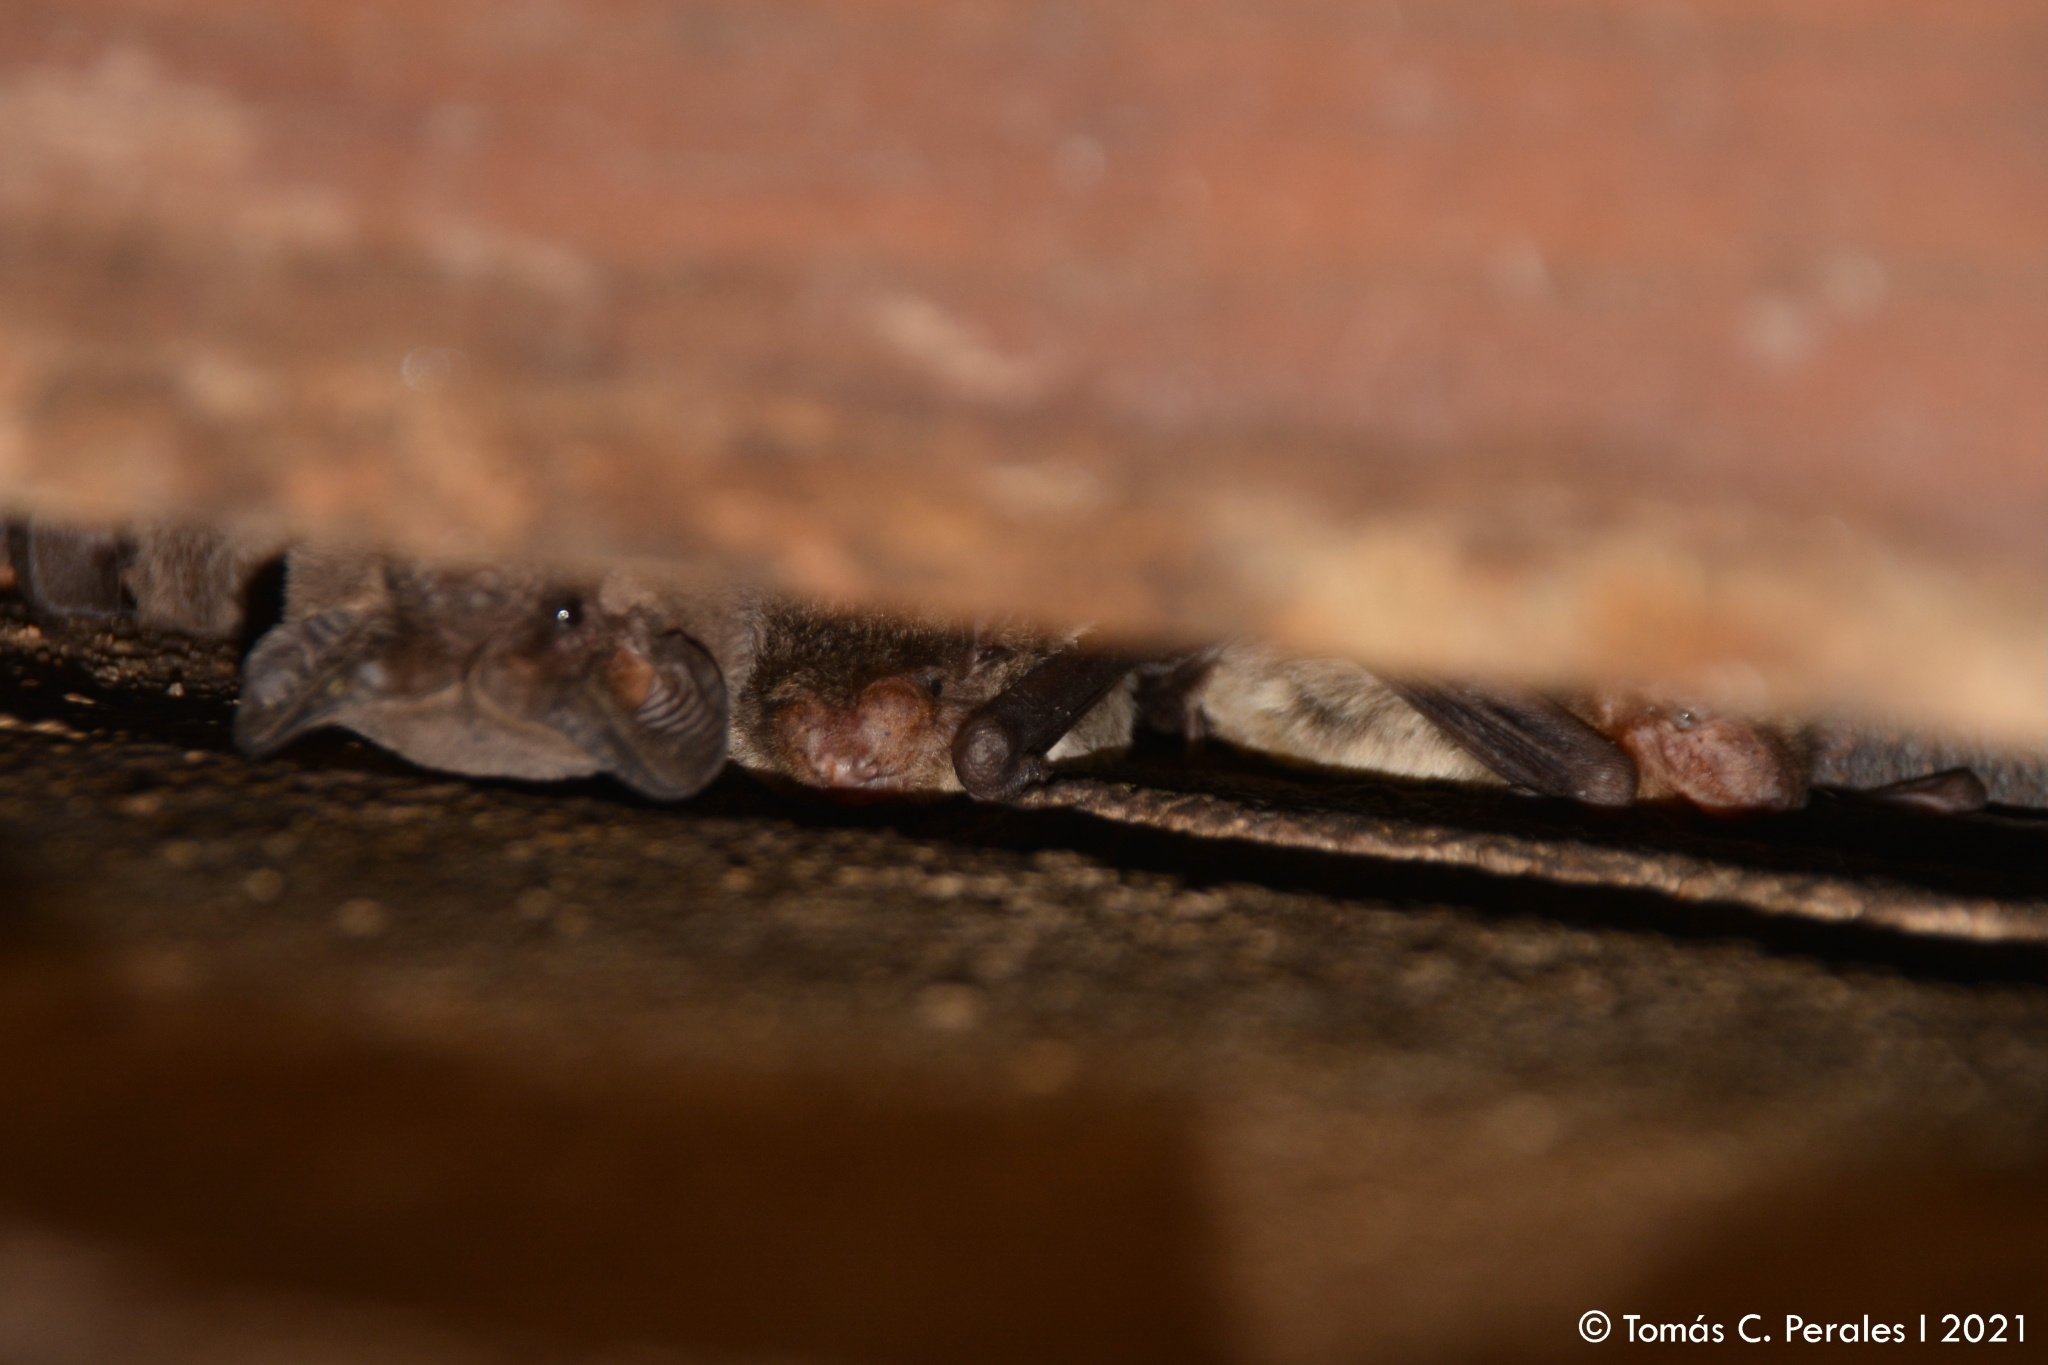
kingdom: Animalia
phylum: Chordata
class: Mammalia
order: Chiroptera
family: Molossidae
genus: Tadarida
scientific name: Tadarida brasiliensis
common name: Mexican free-tailed bat
